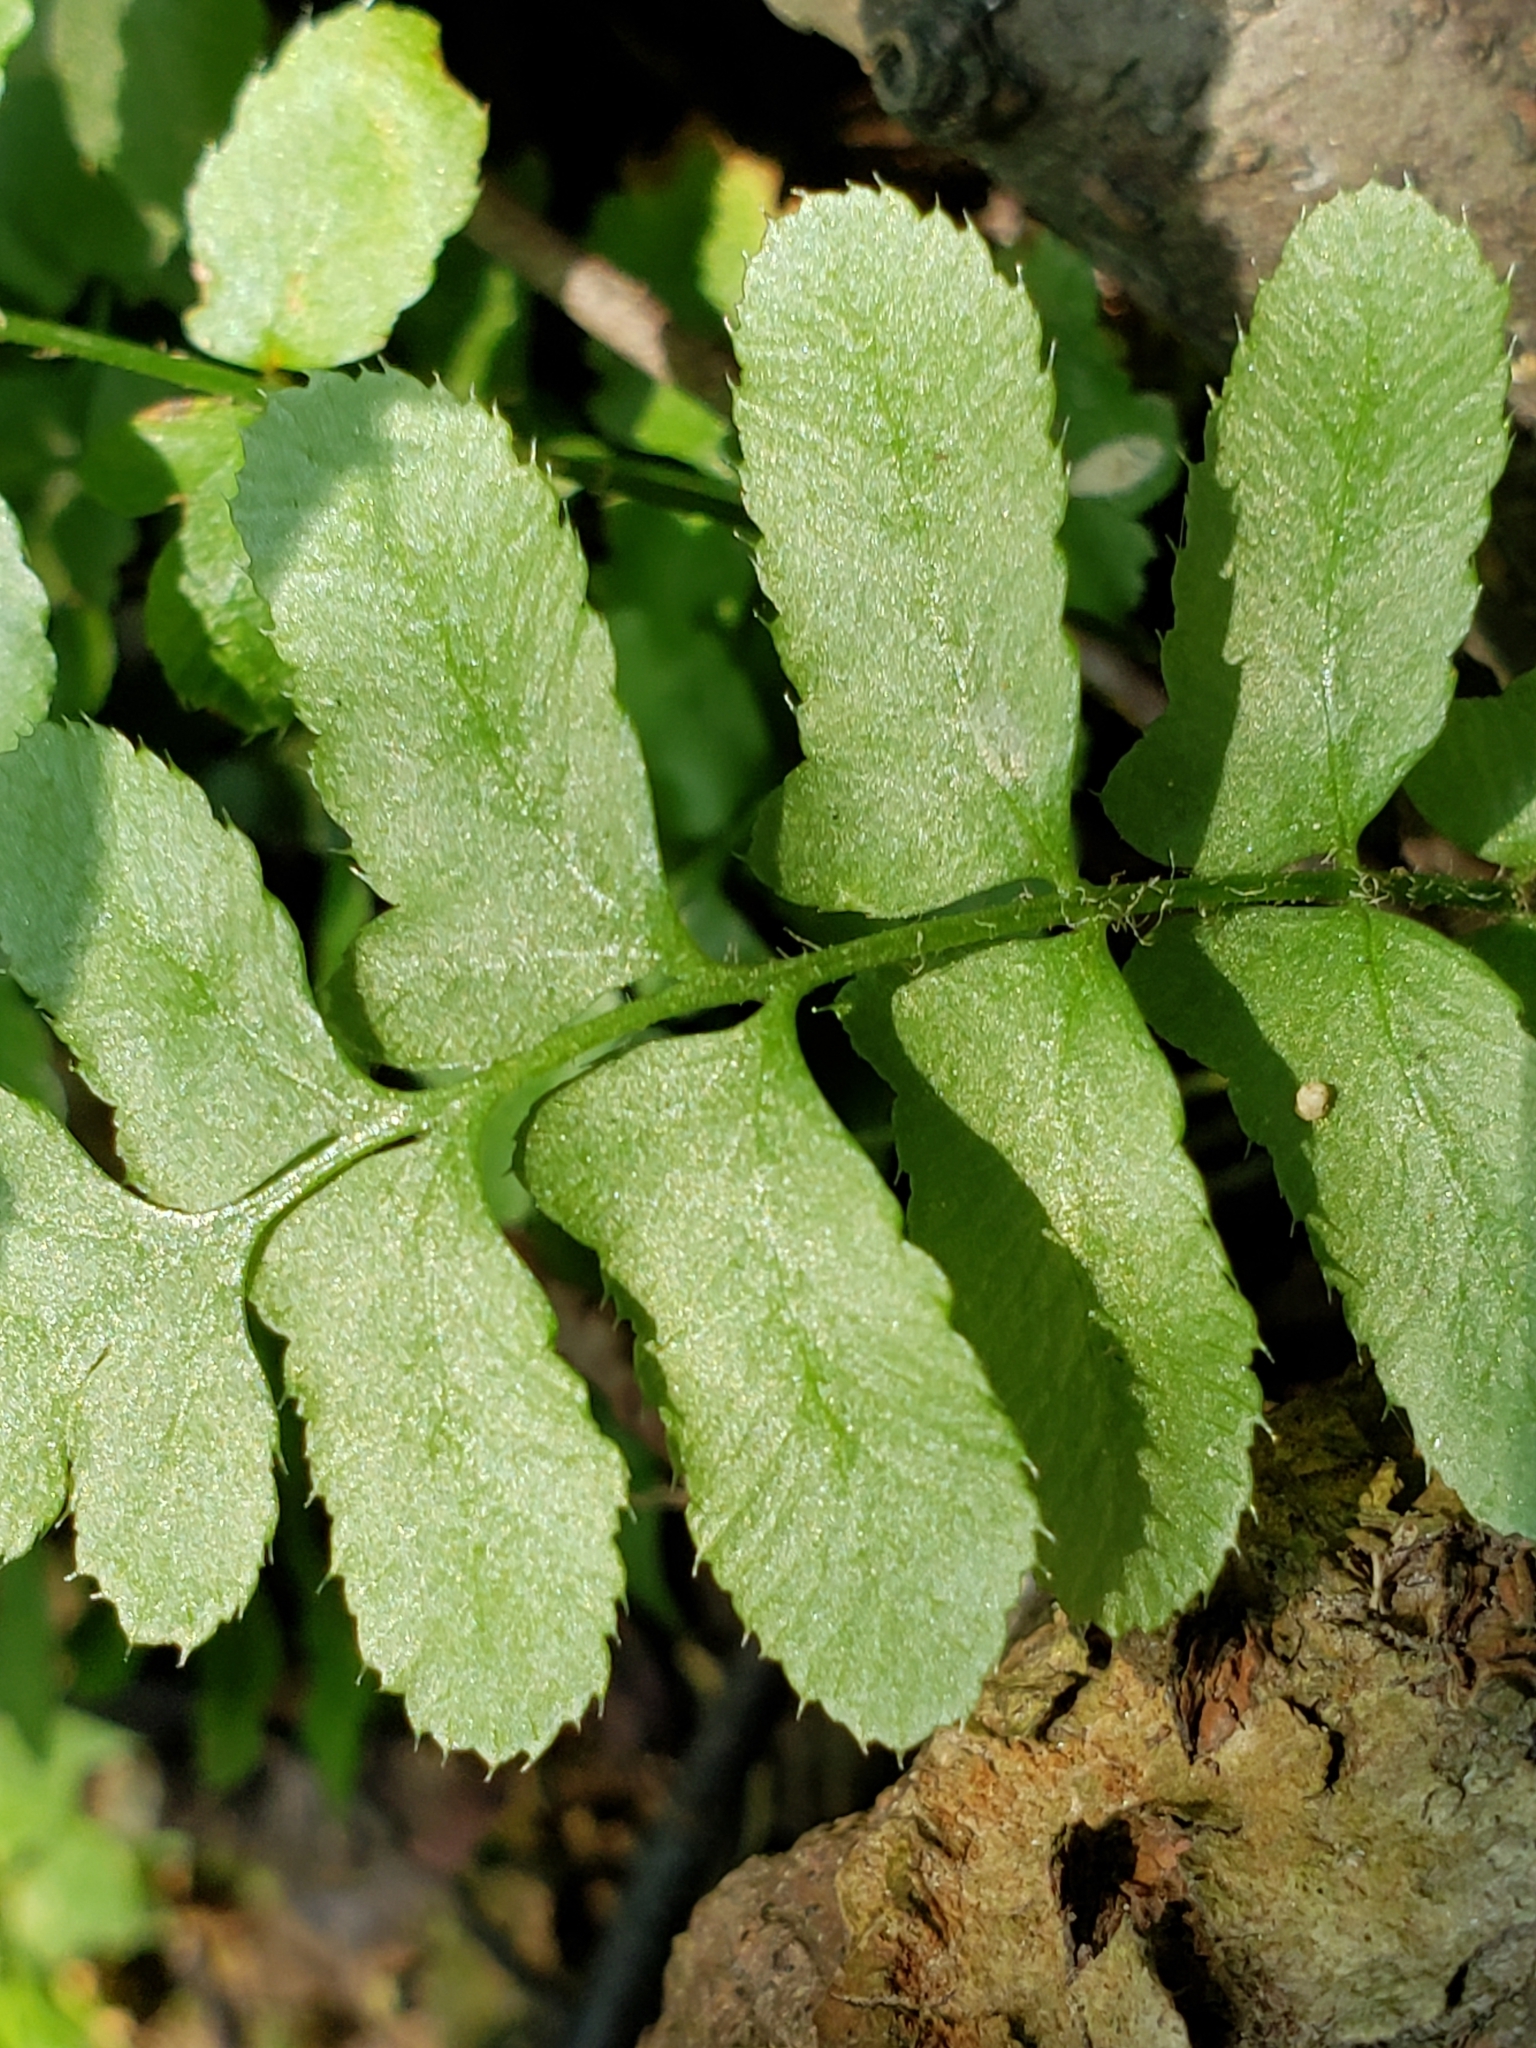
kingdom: Plantae
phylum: Tracheophyta
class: Polypodiopsida
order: Polypodiales
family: Dryopteridaceae
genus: Polystichum
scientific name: Polystichum acrostichoides
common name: Christmas fern
